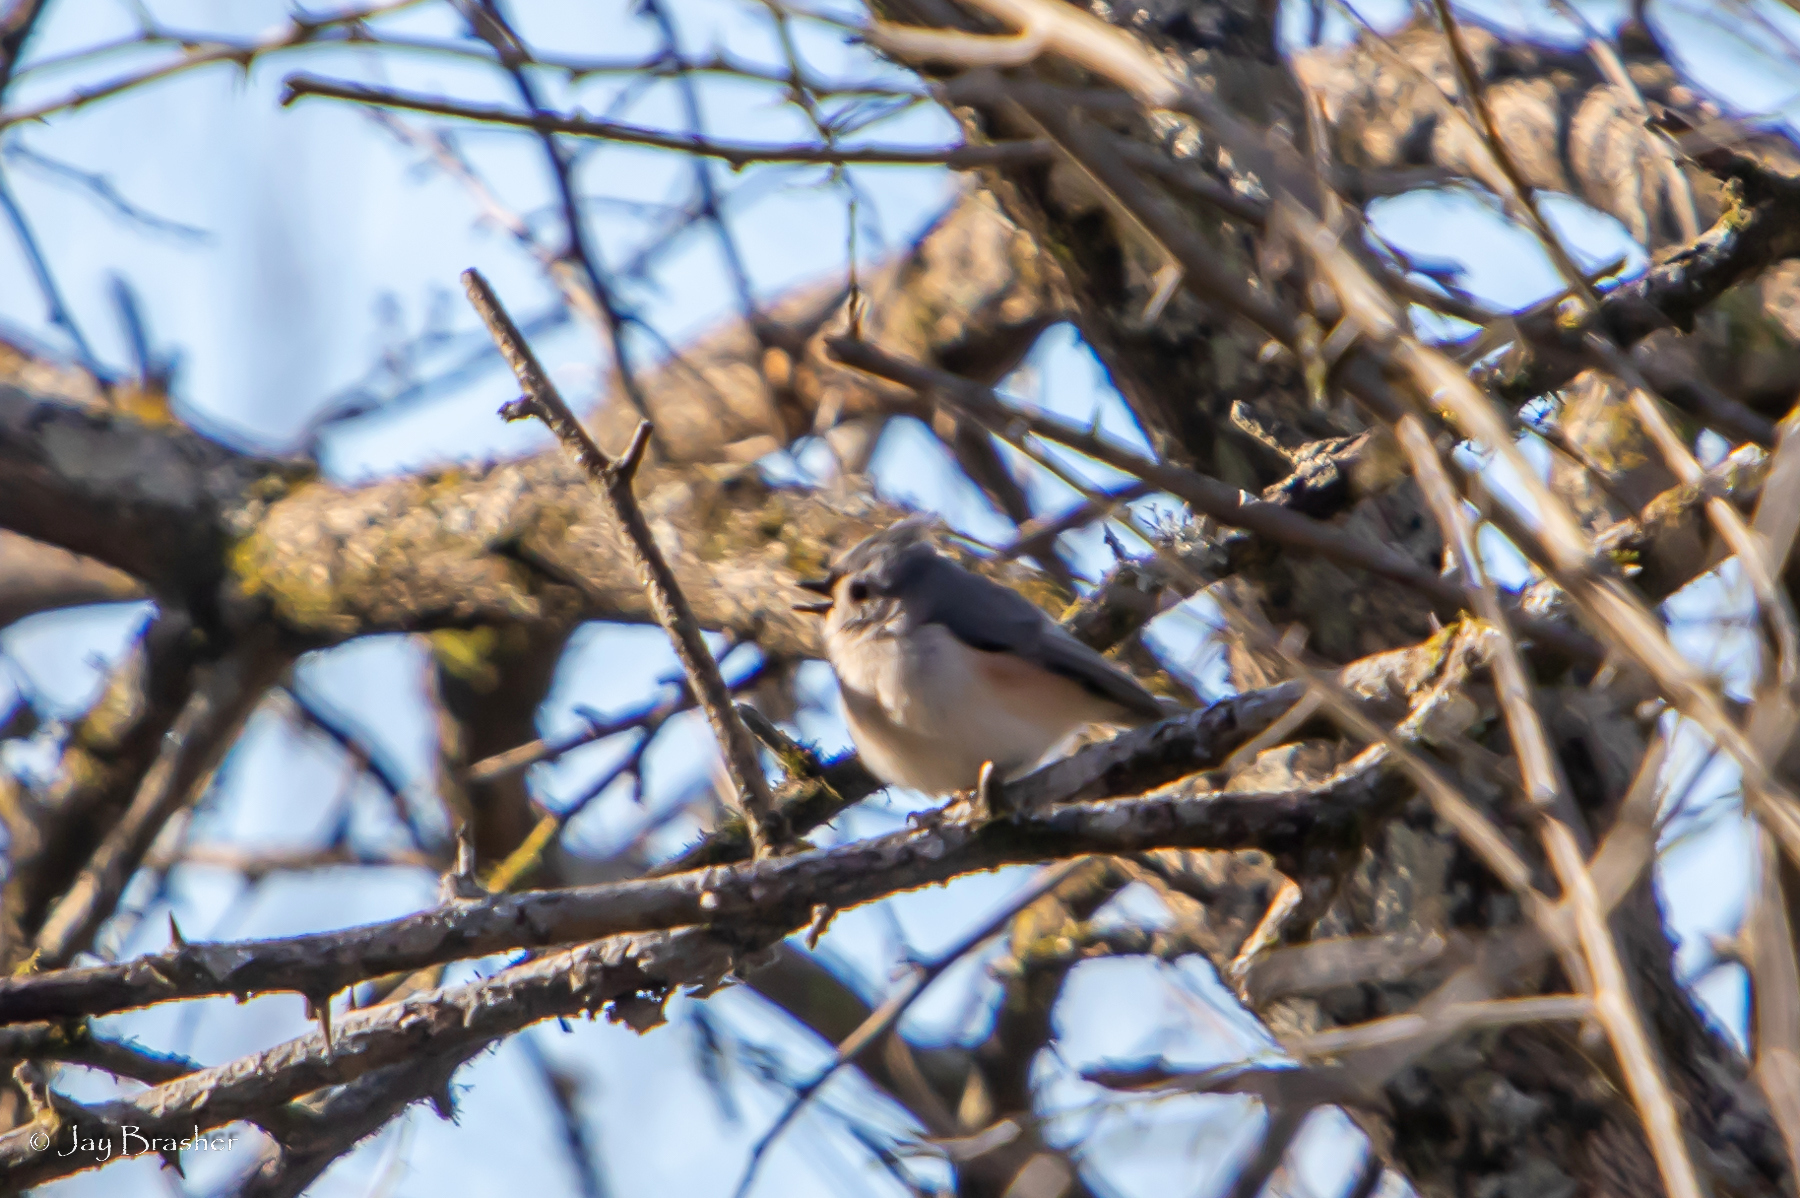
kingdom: Animalia
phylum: Chordata
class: Aves
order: Passeriformes
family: Paridae
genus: Baeolophus
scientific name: Baeolophus bicolor
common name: Tufted titmouse
